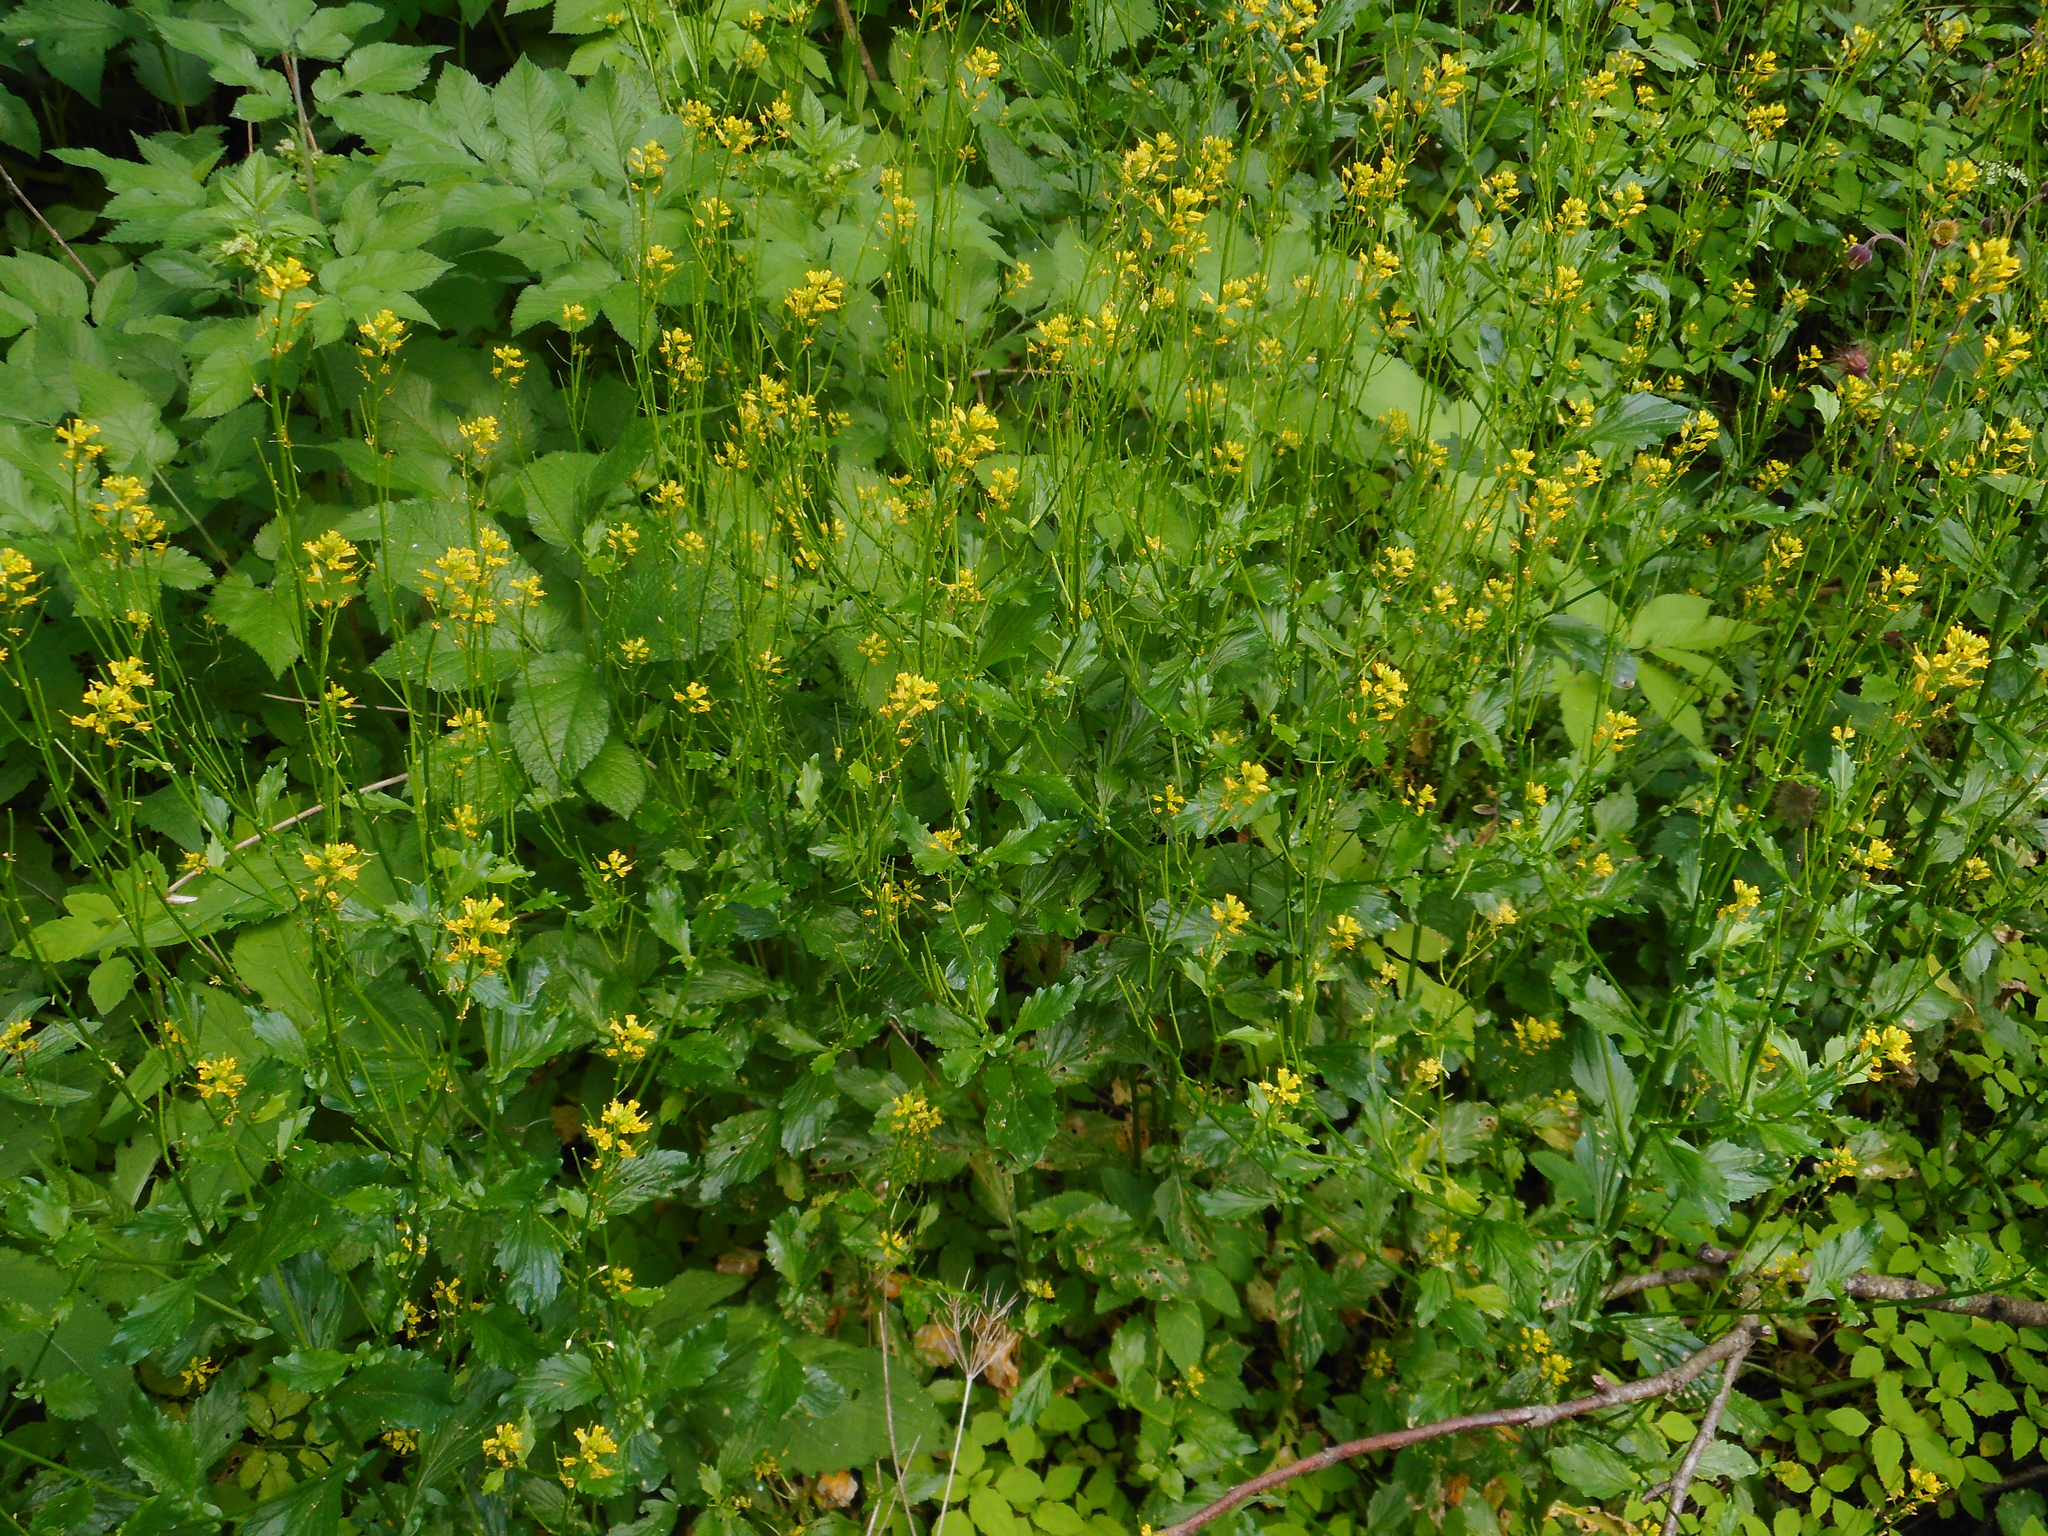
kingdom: Plantae
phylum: Tracheophyta
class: Magnoliopsida
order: Brassicales
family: Brassicaceae
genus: Barbarea
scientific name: Barbarea stricta
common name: Small-flowered winter-cress
